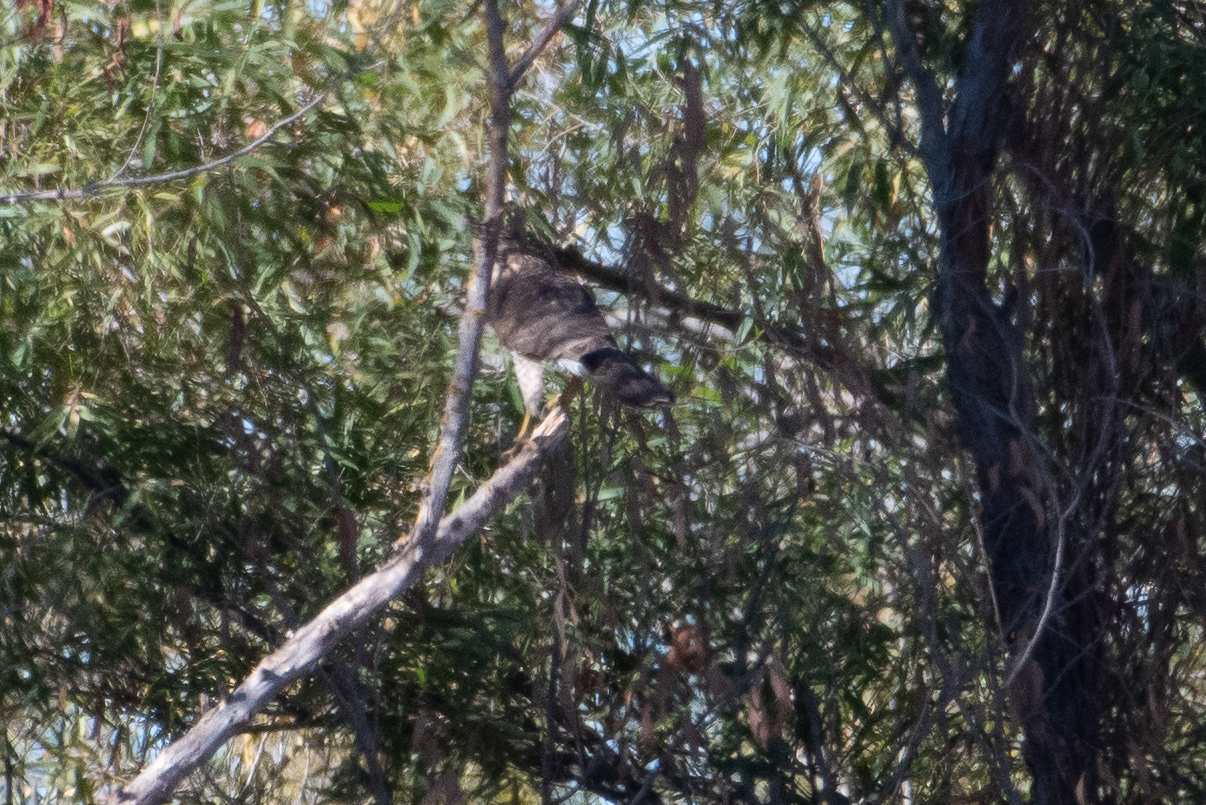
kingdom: Animalia
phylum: Chordata
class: Aves
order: Accipitriformes
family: Accipitridae
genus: Accipiter
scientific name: Accipiter cooperii
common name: Cooper's hawk
